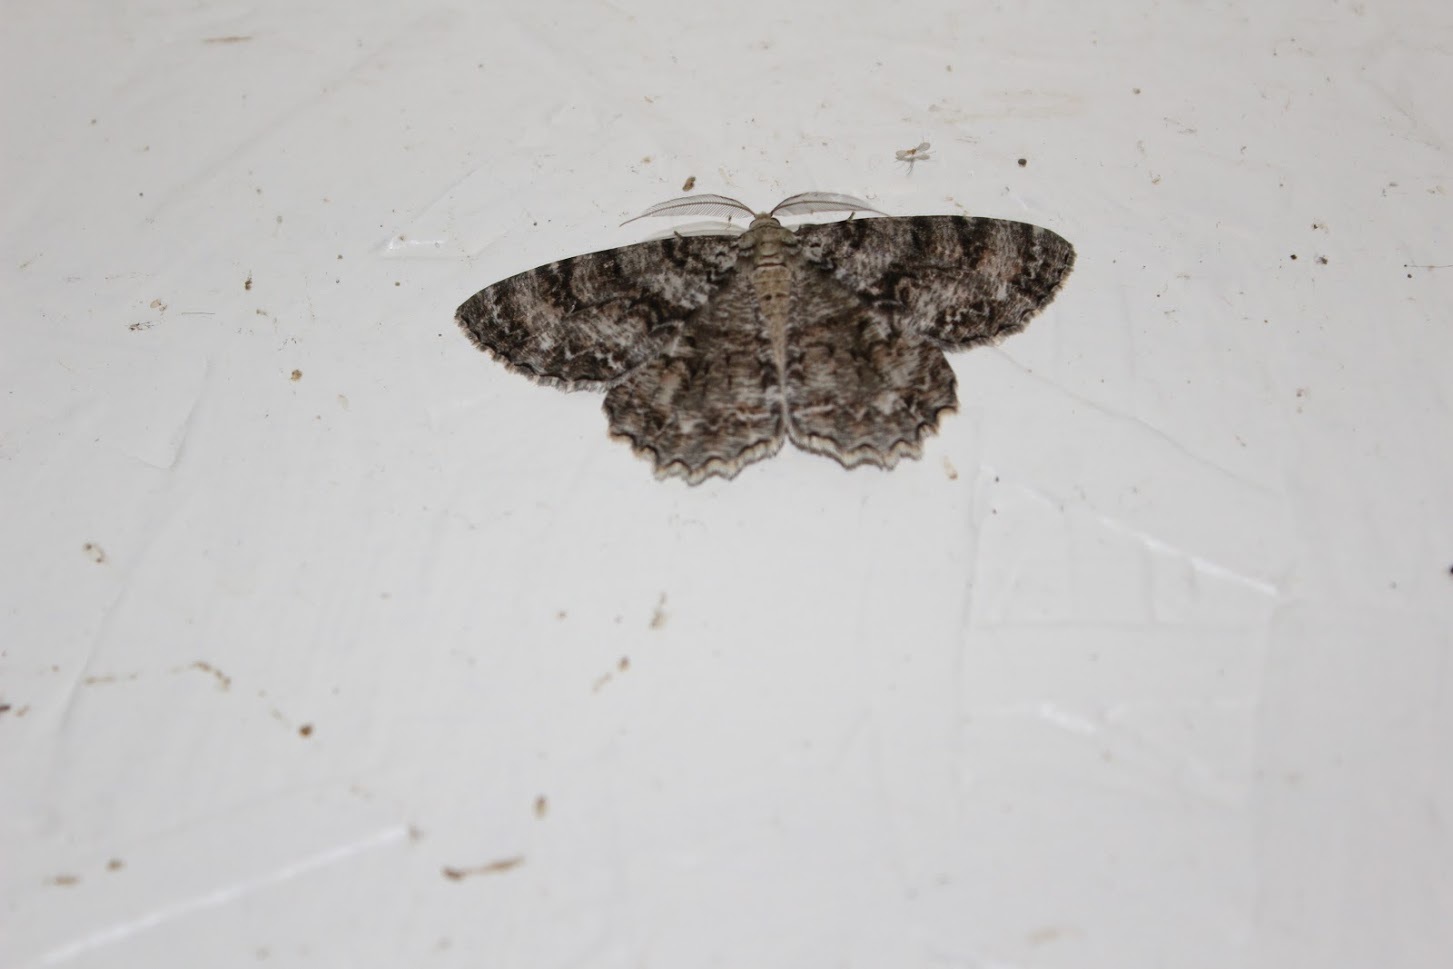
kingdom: Animalia
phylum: Arthropoda
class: Insecta
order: Lepidoptera
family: Geometridae
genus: Epimecis
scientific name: Epimecis hortaria
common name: Tulip-tree beauty
